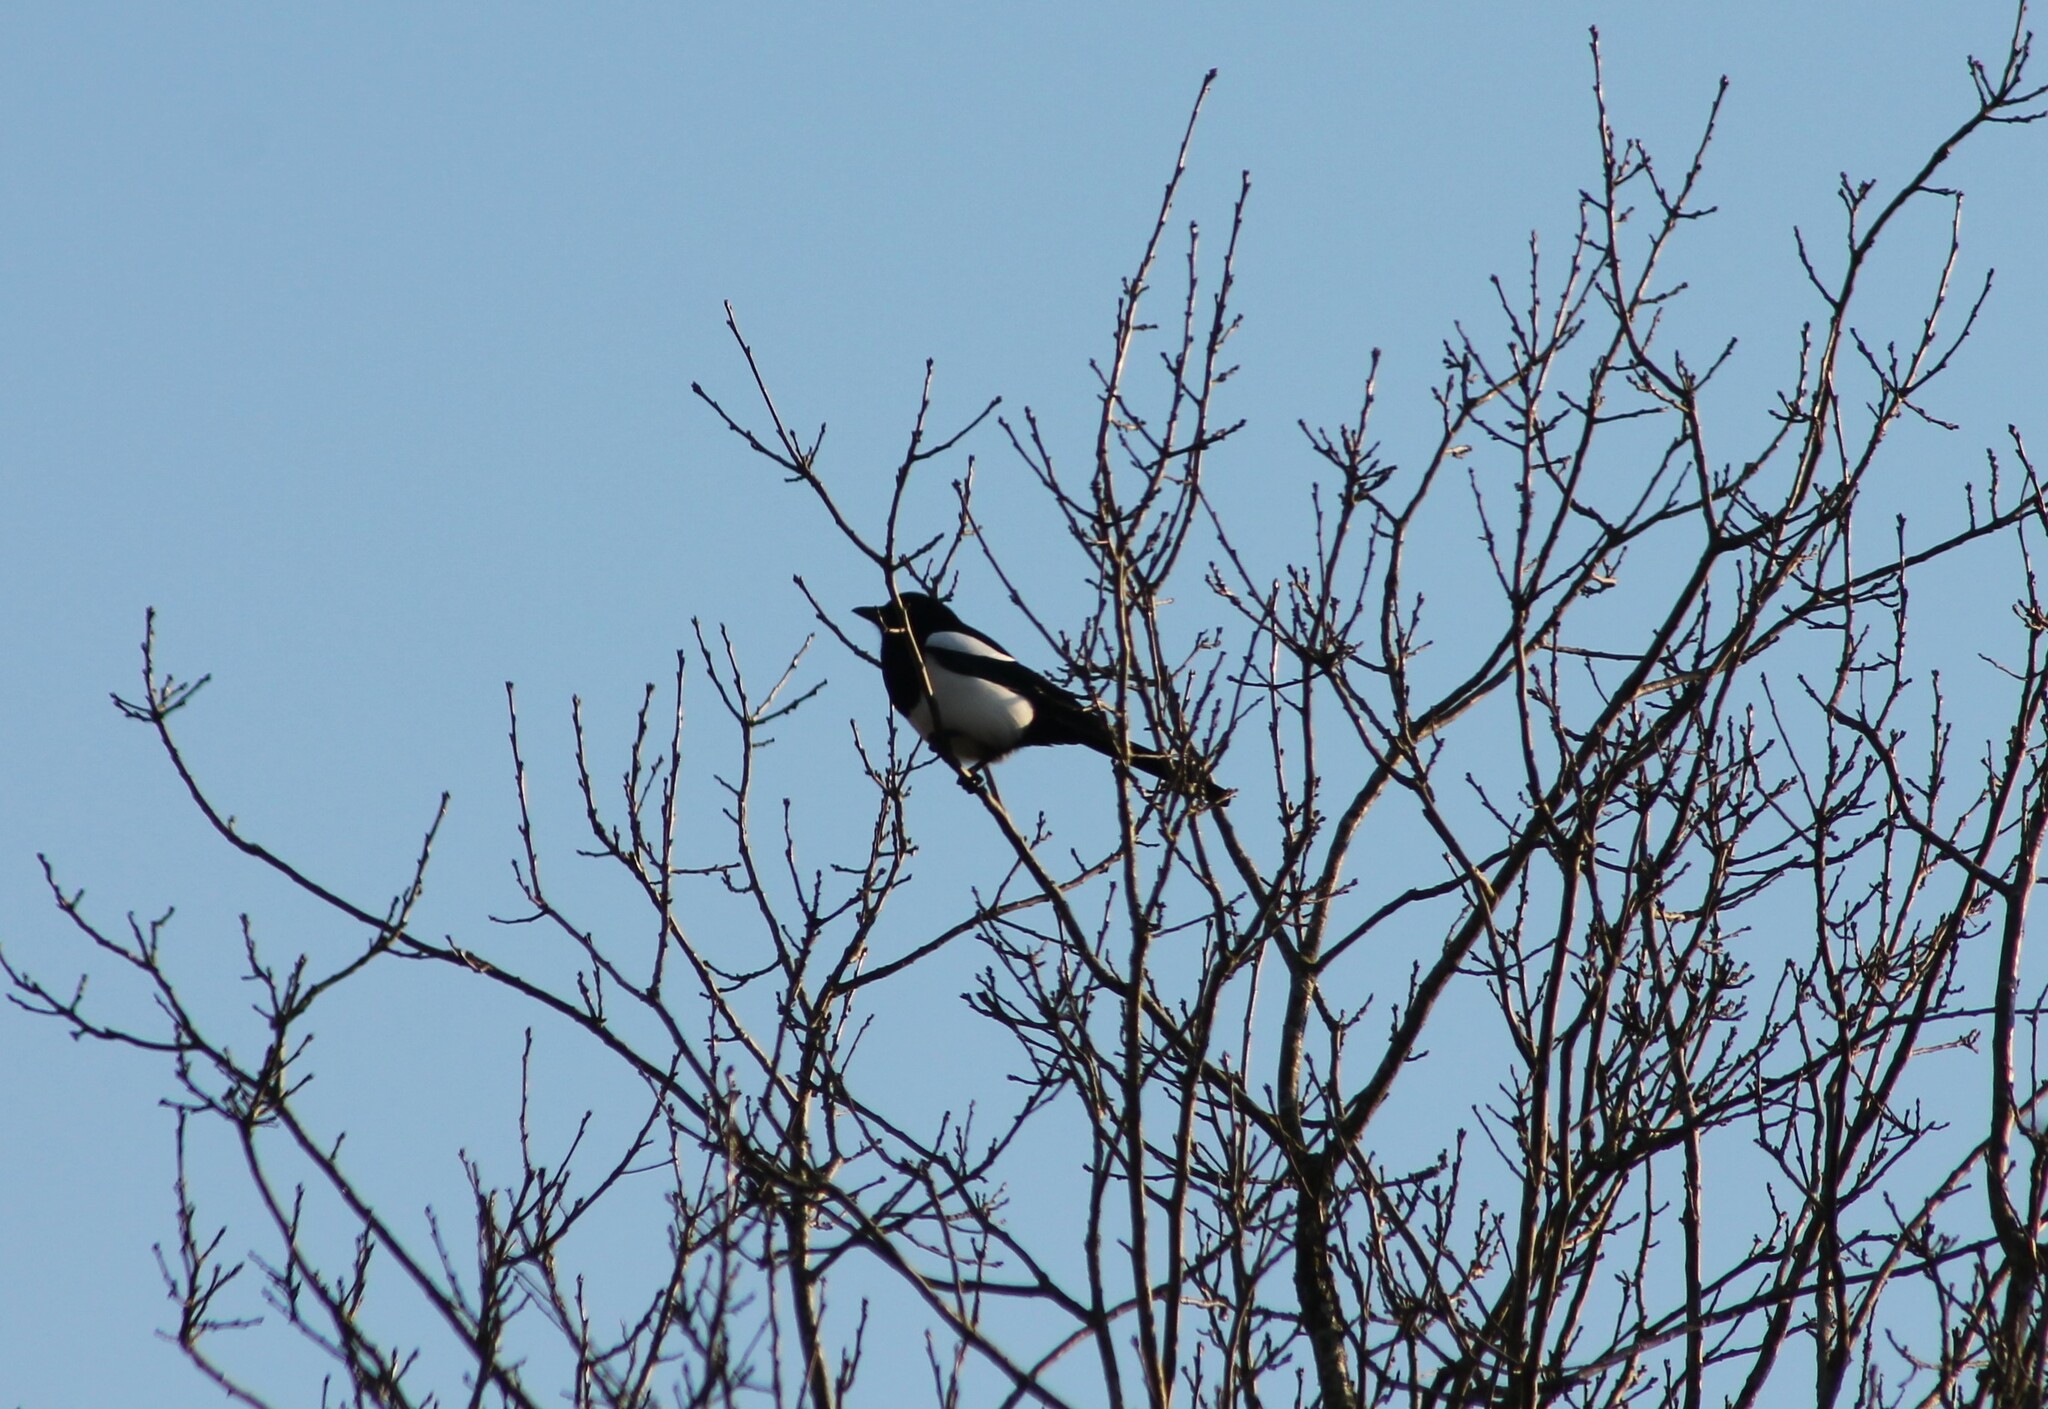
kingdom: Animalia
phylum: Chordata
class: Aves
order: Passeriformes
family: Corvidae
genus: Pica
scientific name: Pica pica
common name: Eurasian magpie
